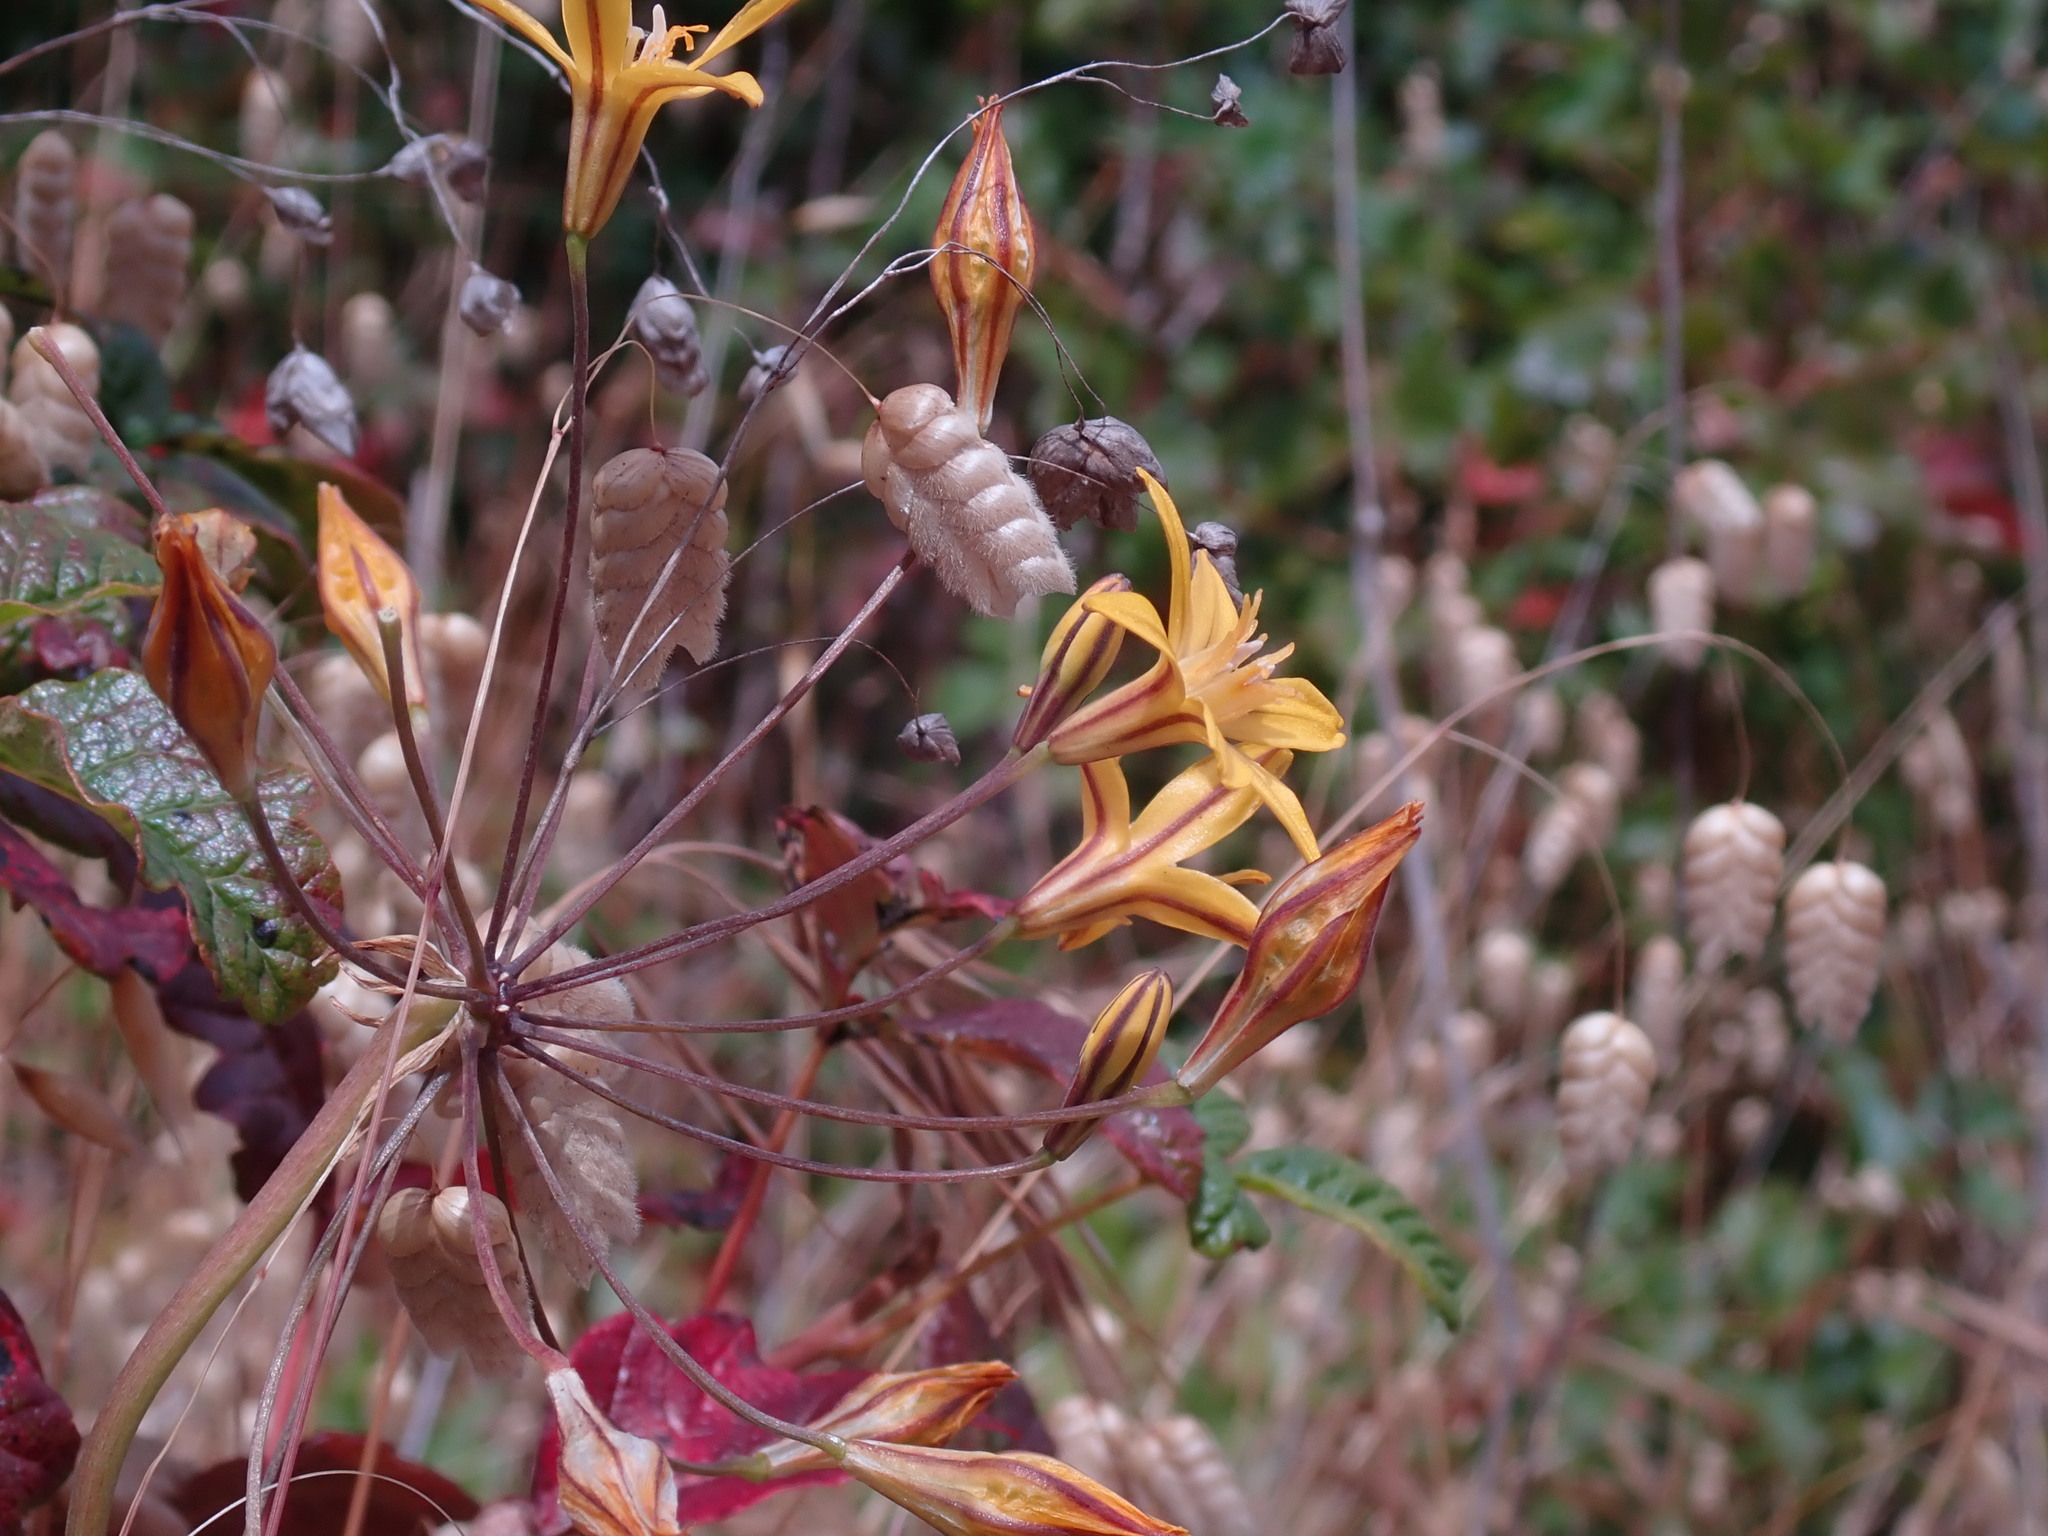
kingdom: Plantae
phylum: Tracheophyta
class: Liliopsida
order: Asparagales
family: Asparagaceae
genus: Triteleia
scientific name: Triteleia ixioides
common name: Yellow-brodiaea
